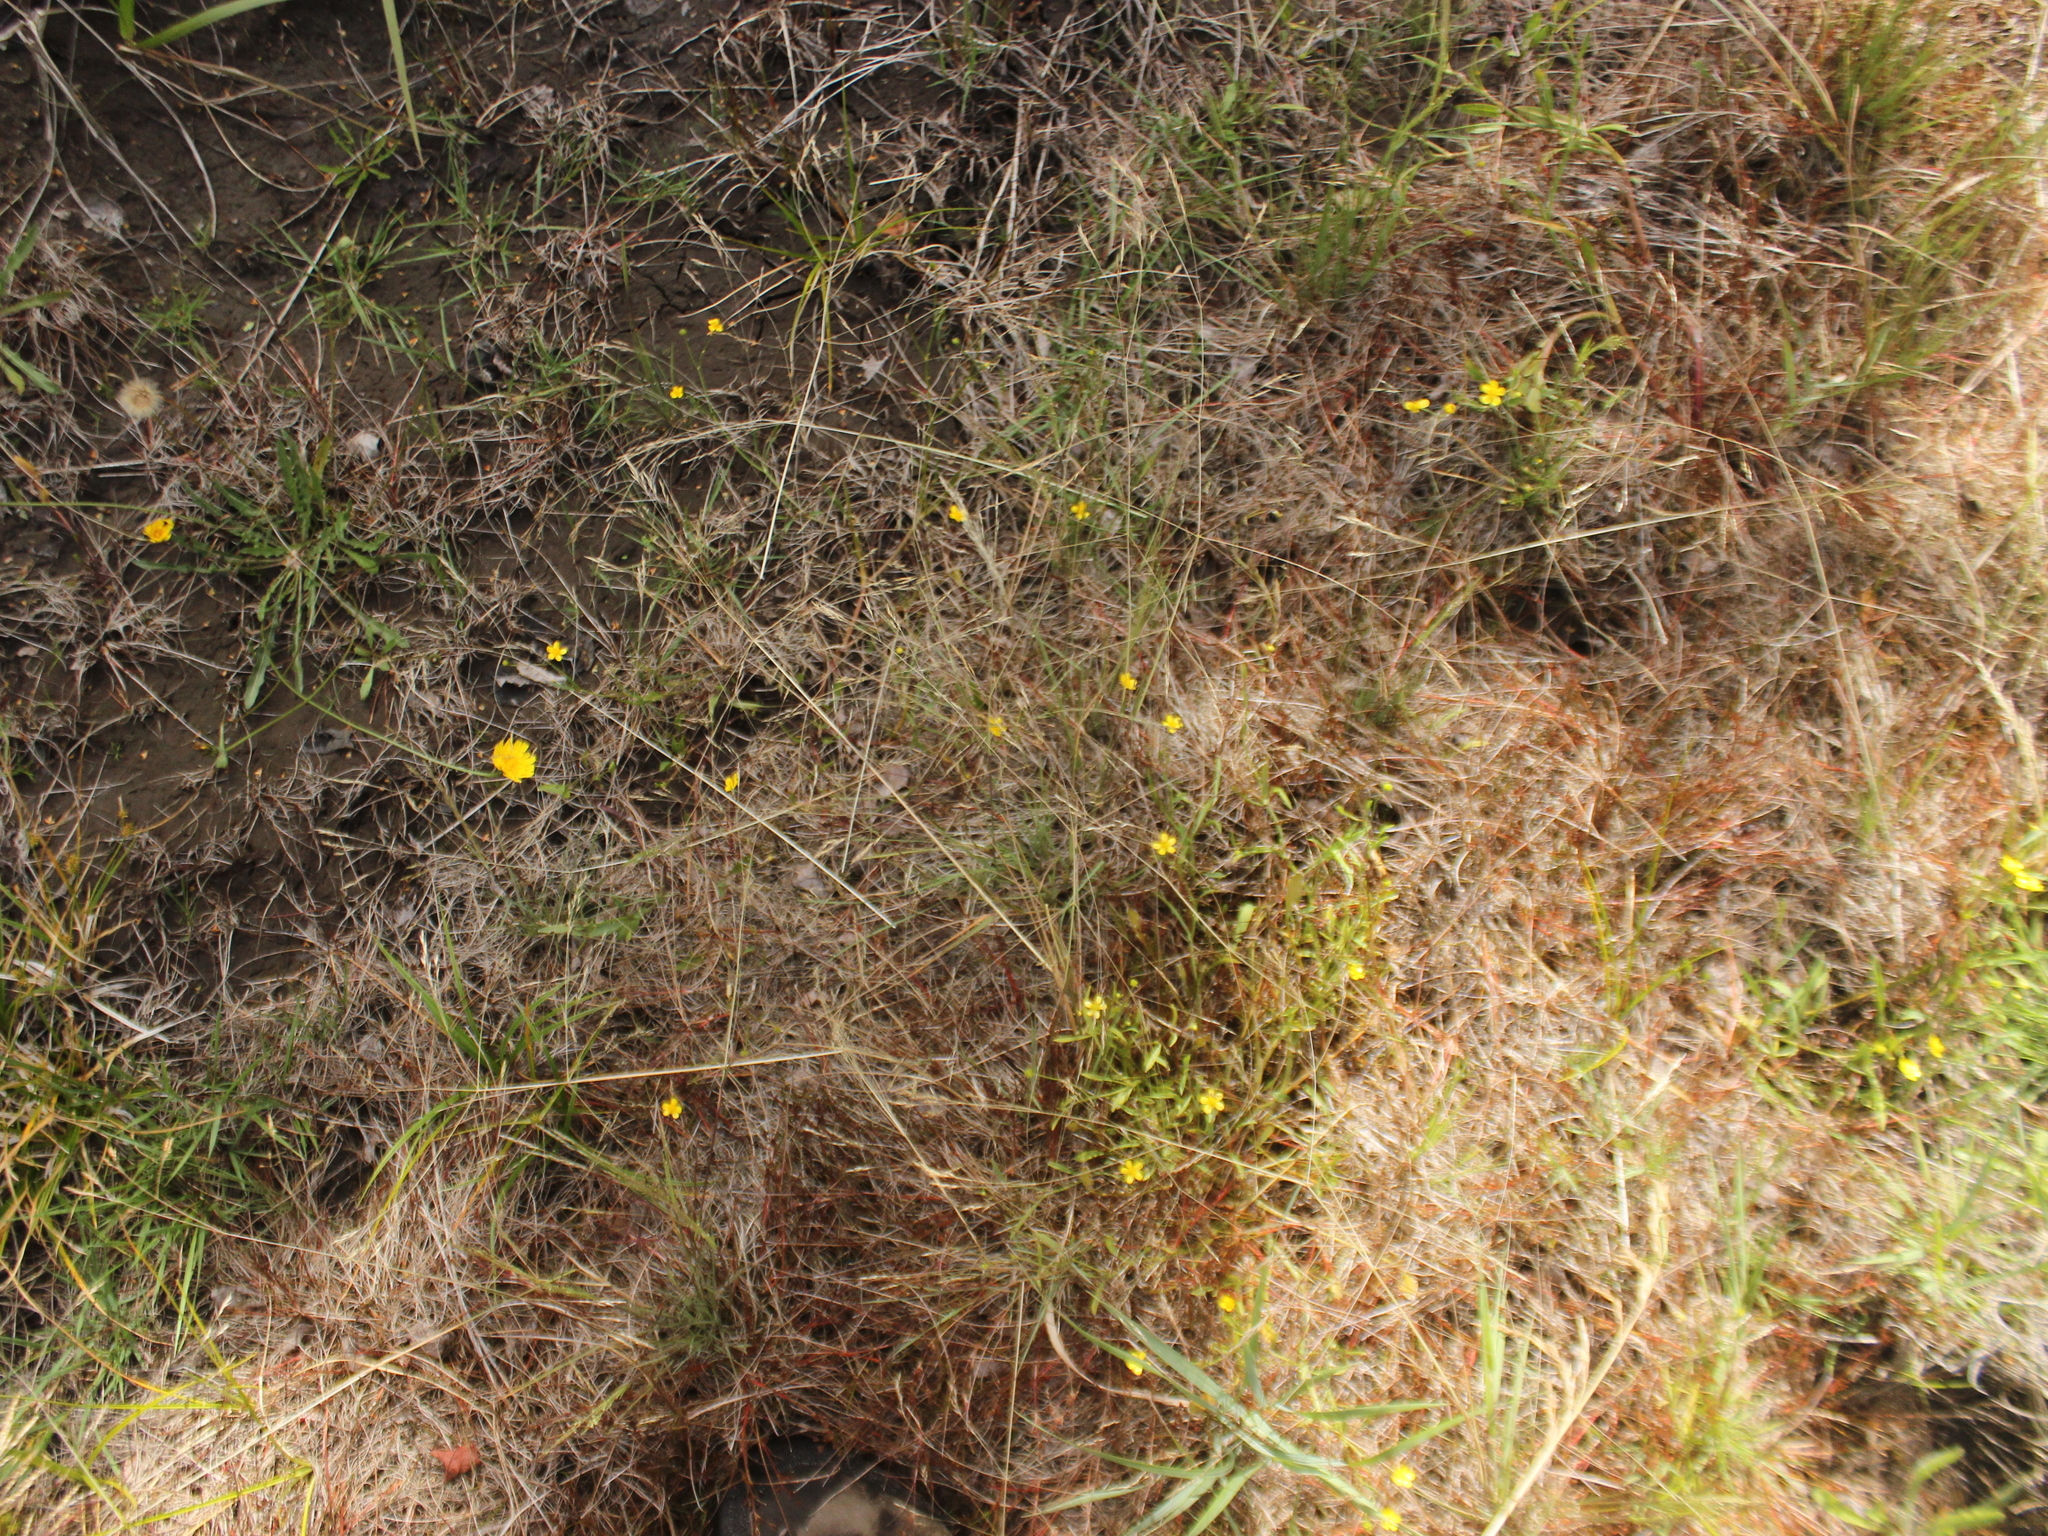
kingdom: Plantae
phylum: Tracheophyta
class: Liliopsida
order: Poales
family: Cyperaceae
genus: Carex
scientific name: Carex demissa
